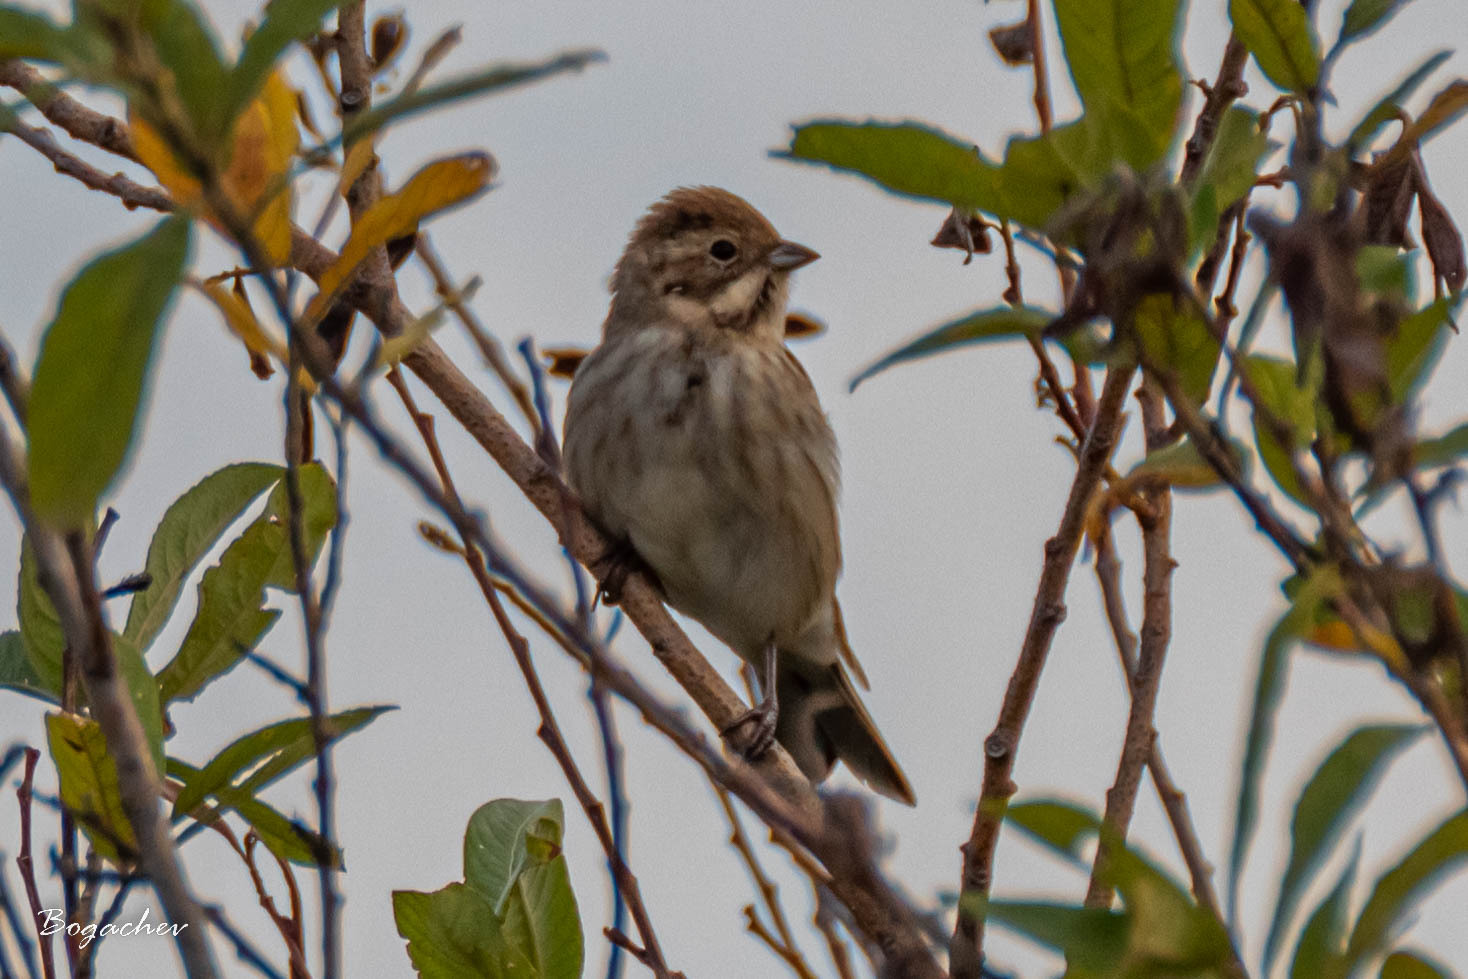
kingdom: Animalia
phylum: Chordata
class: Aves
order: Passeriformes
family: Emberizidae
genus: Emberiza
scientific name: Emberiza schoeniclus
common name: Reed bunting
